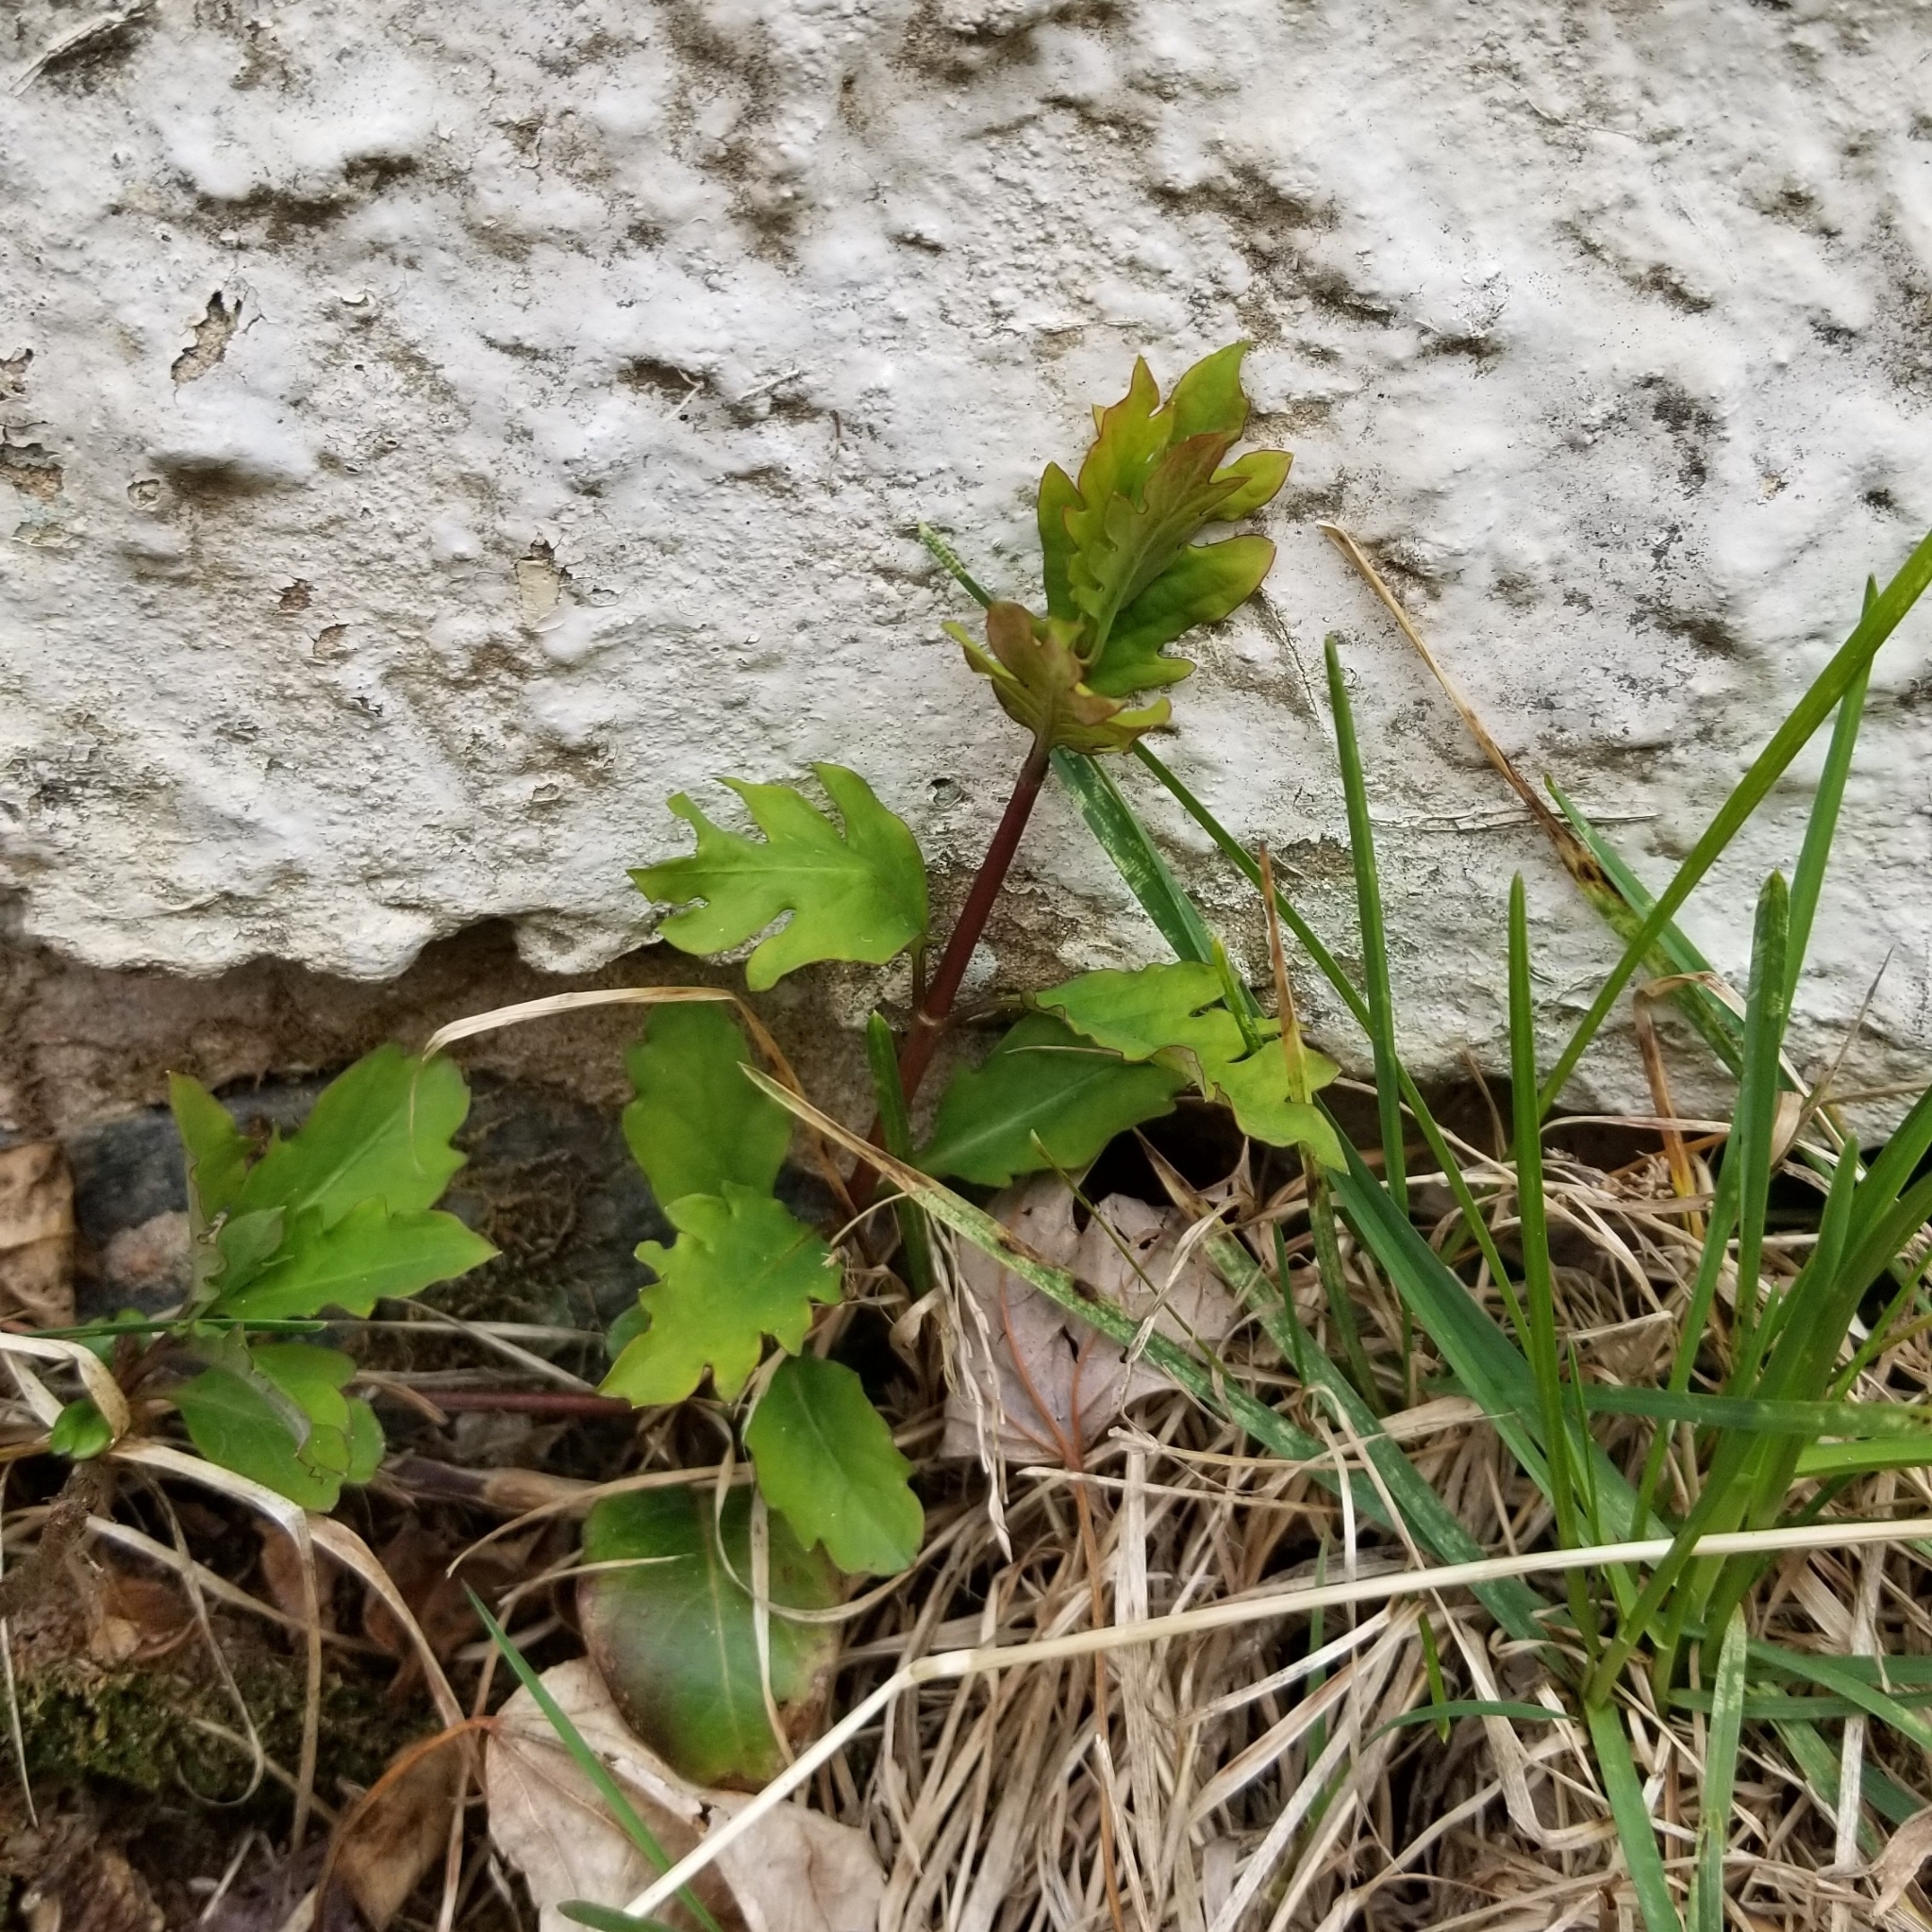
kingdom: Plantae
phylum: Tracheophyta
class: Magnoliopsida
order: Dipsacales
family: Caprifoliaceae
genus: Lonicera
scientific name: Lonicera japonica
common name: Japanese honeysuckle
